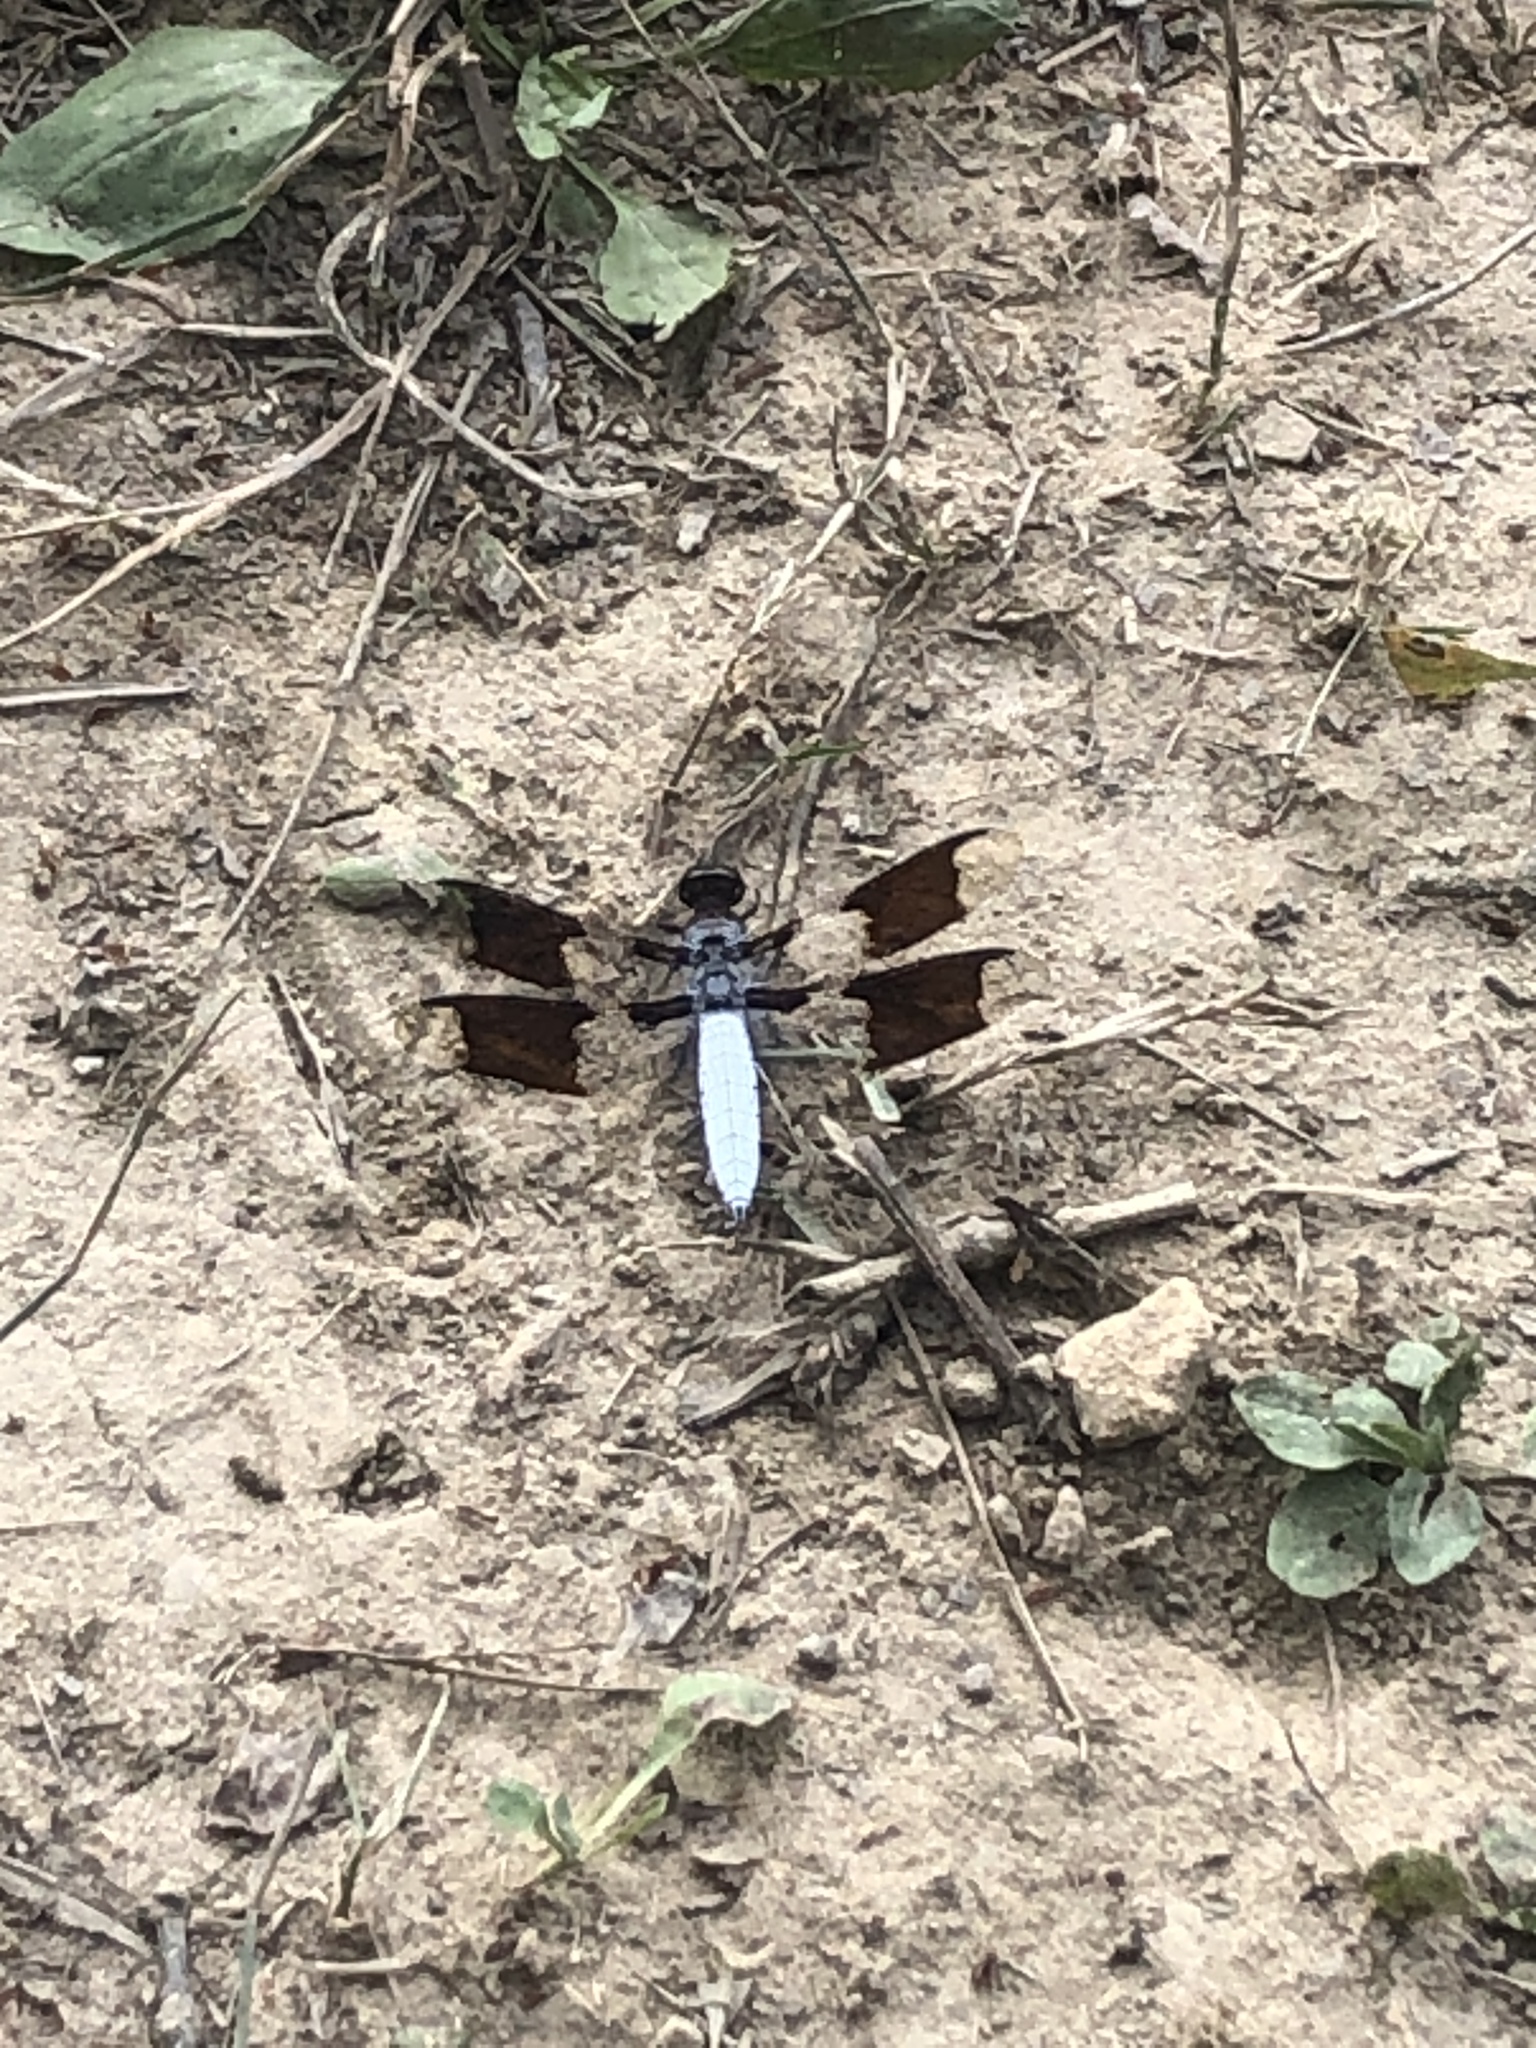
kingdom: Animalia
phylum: Arthropoda
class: Insecta
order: Odonata
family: Libellulidae
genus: Plathemis
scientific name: Plathemis lydia
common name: Common whitetail
